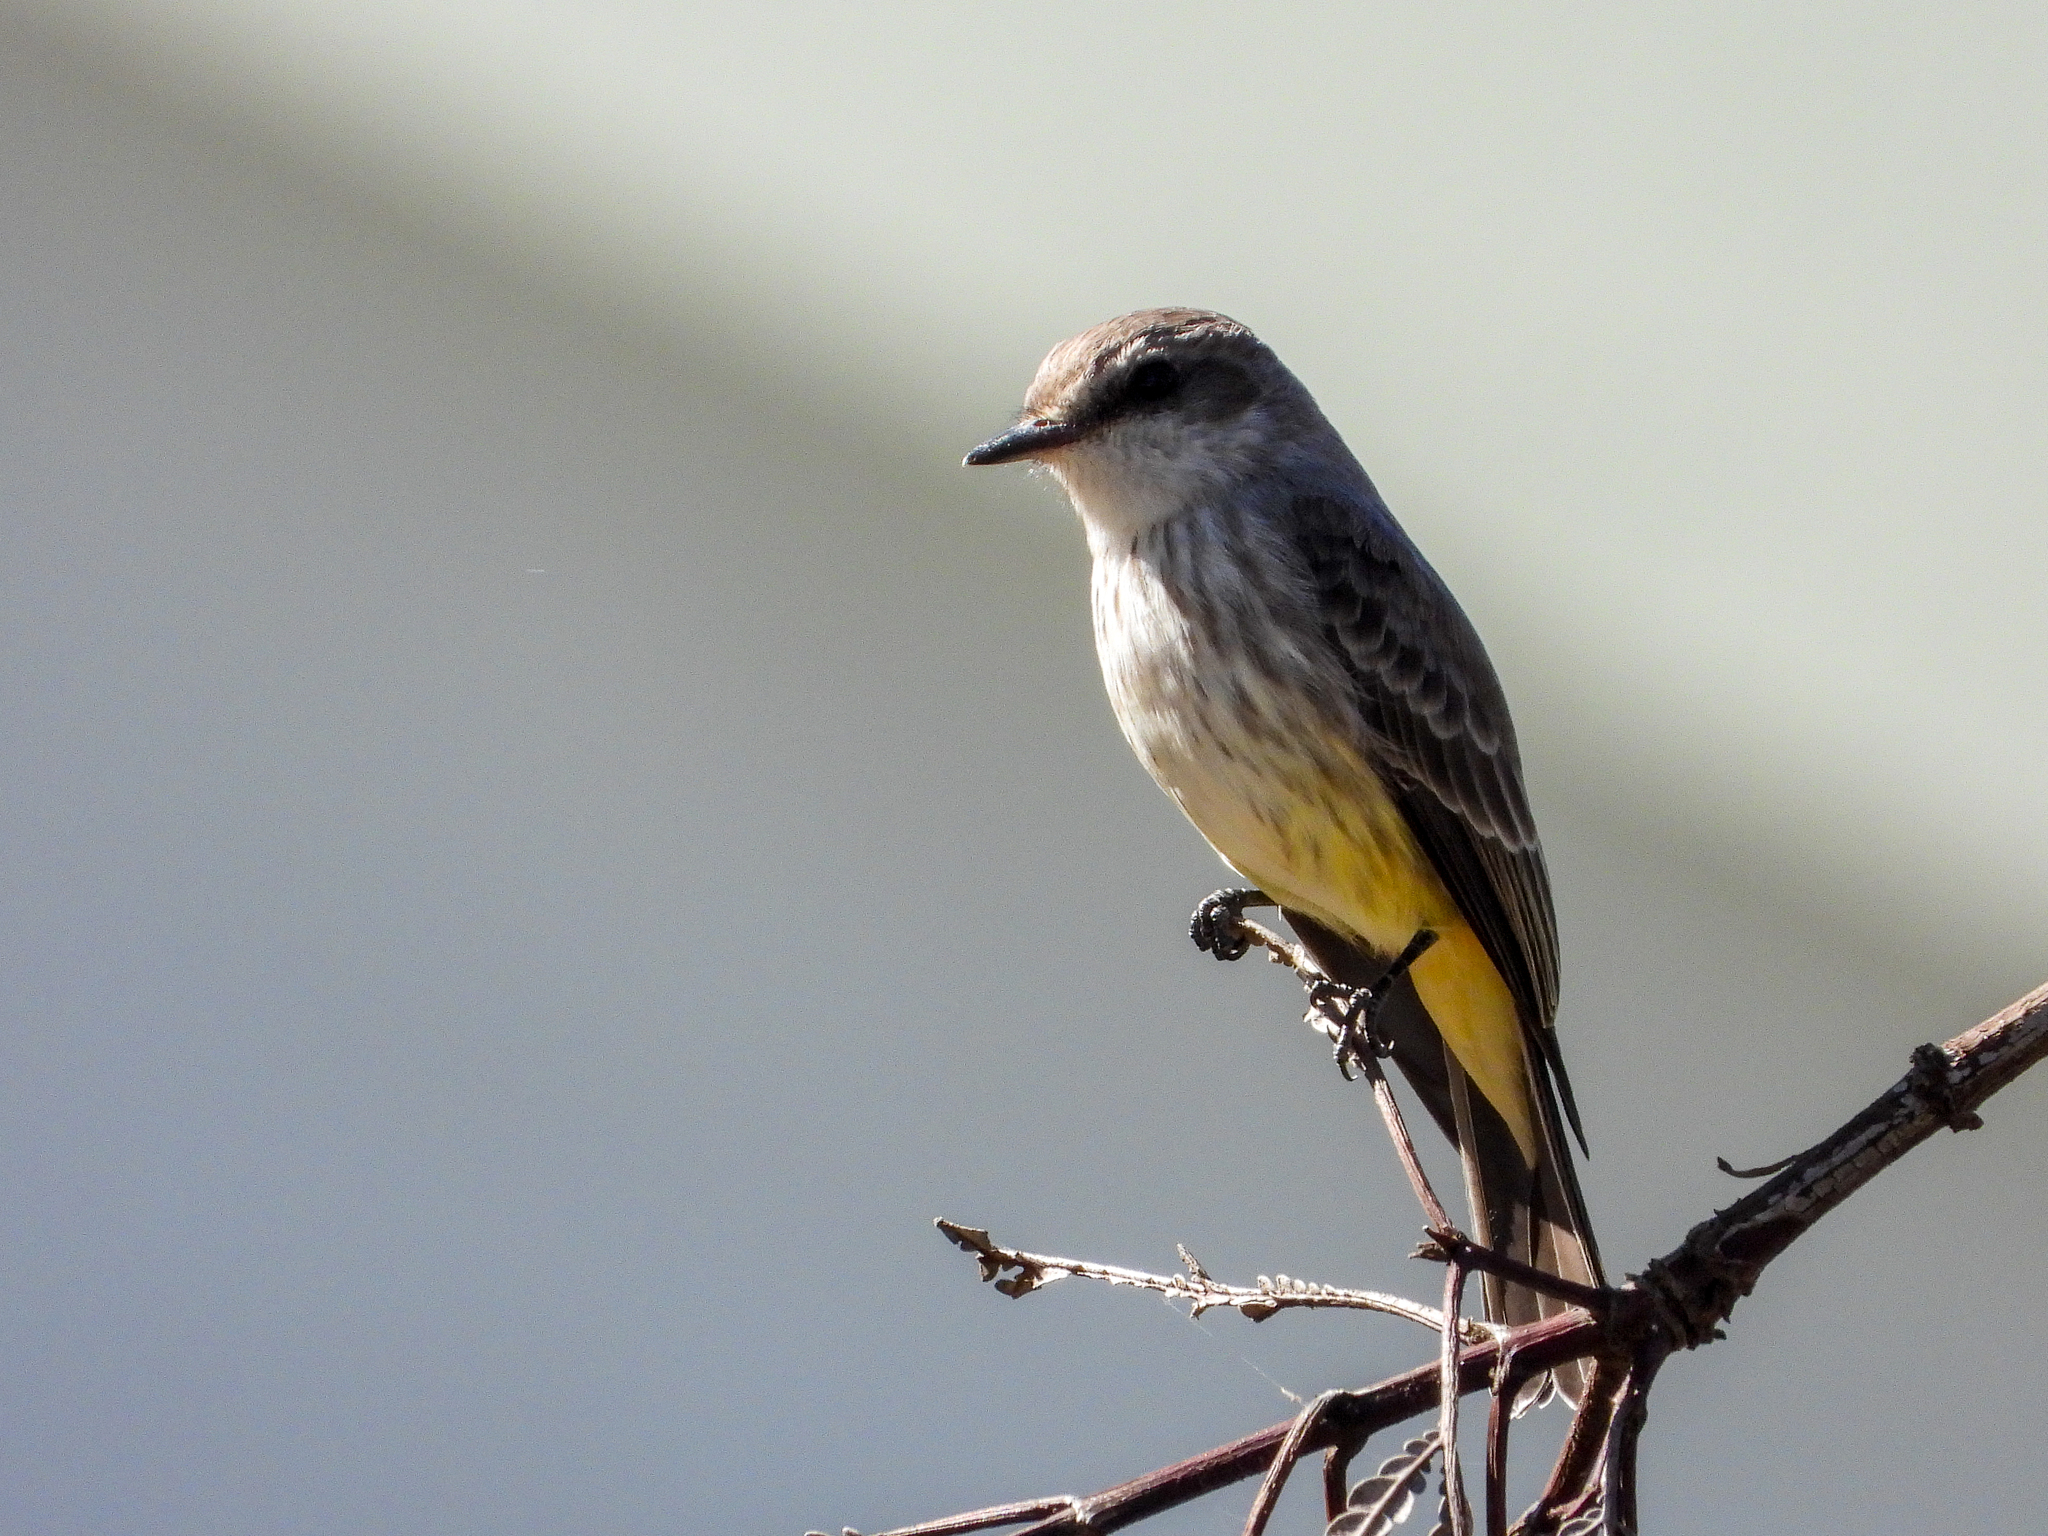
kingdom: Animalia
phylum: Chordata
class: Aves
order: Passeriformes
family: Tyrannidae
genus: Pyrocephalus
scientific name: Pyrocephalus rubinus
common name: Vermilion flycatcher
